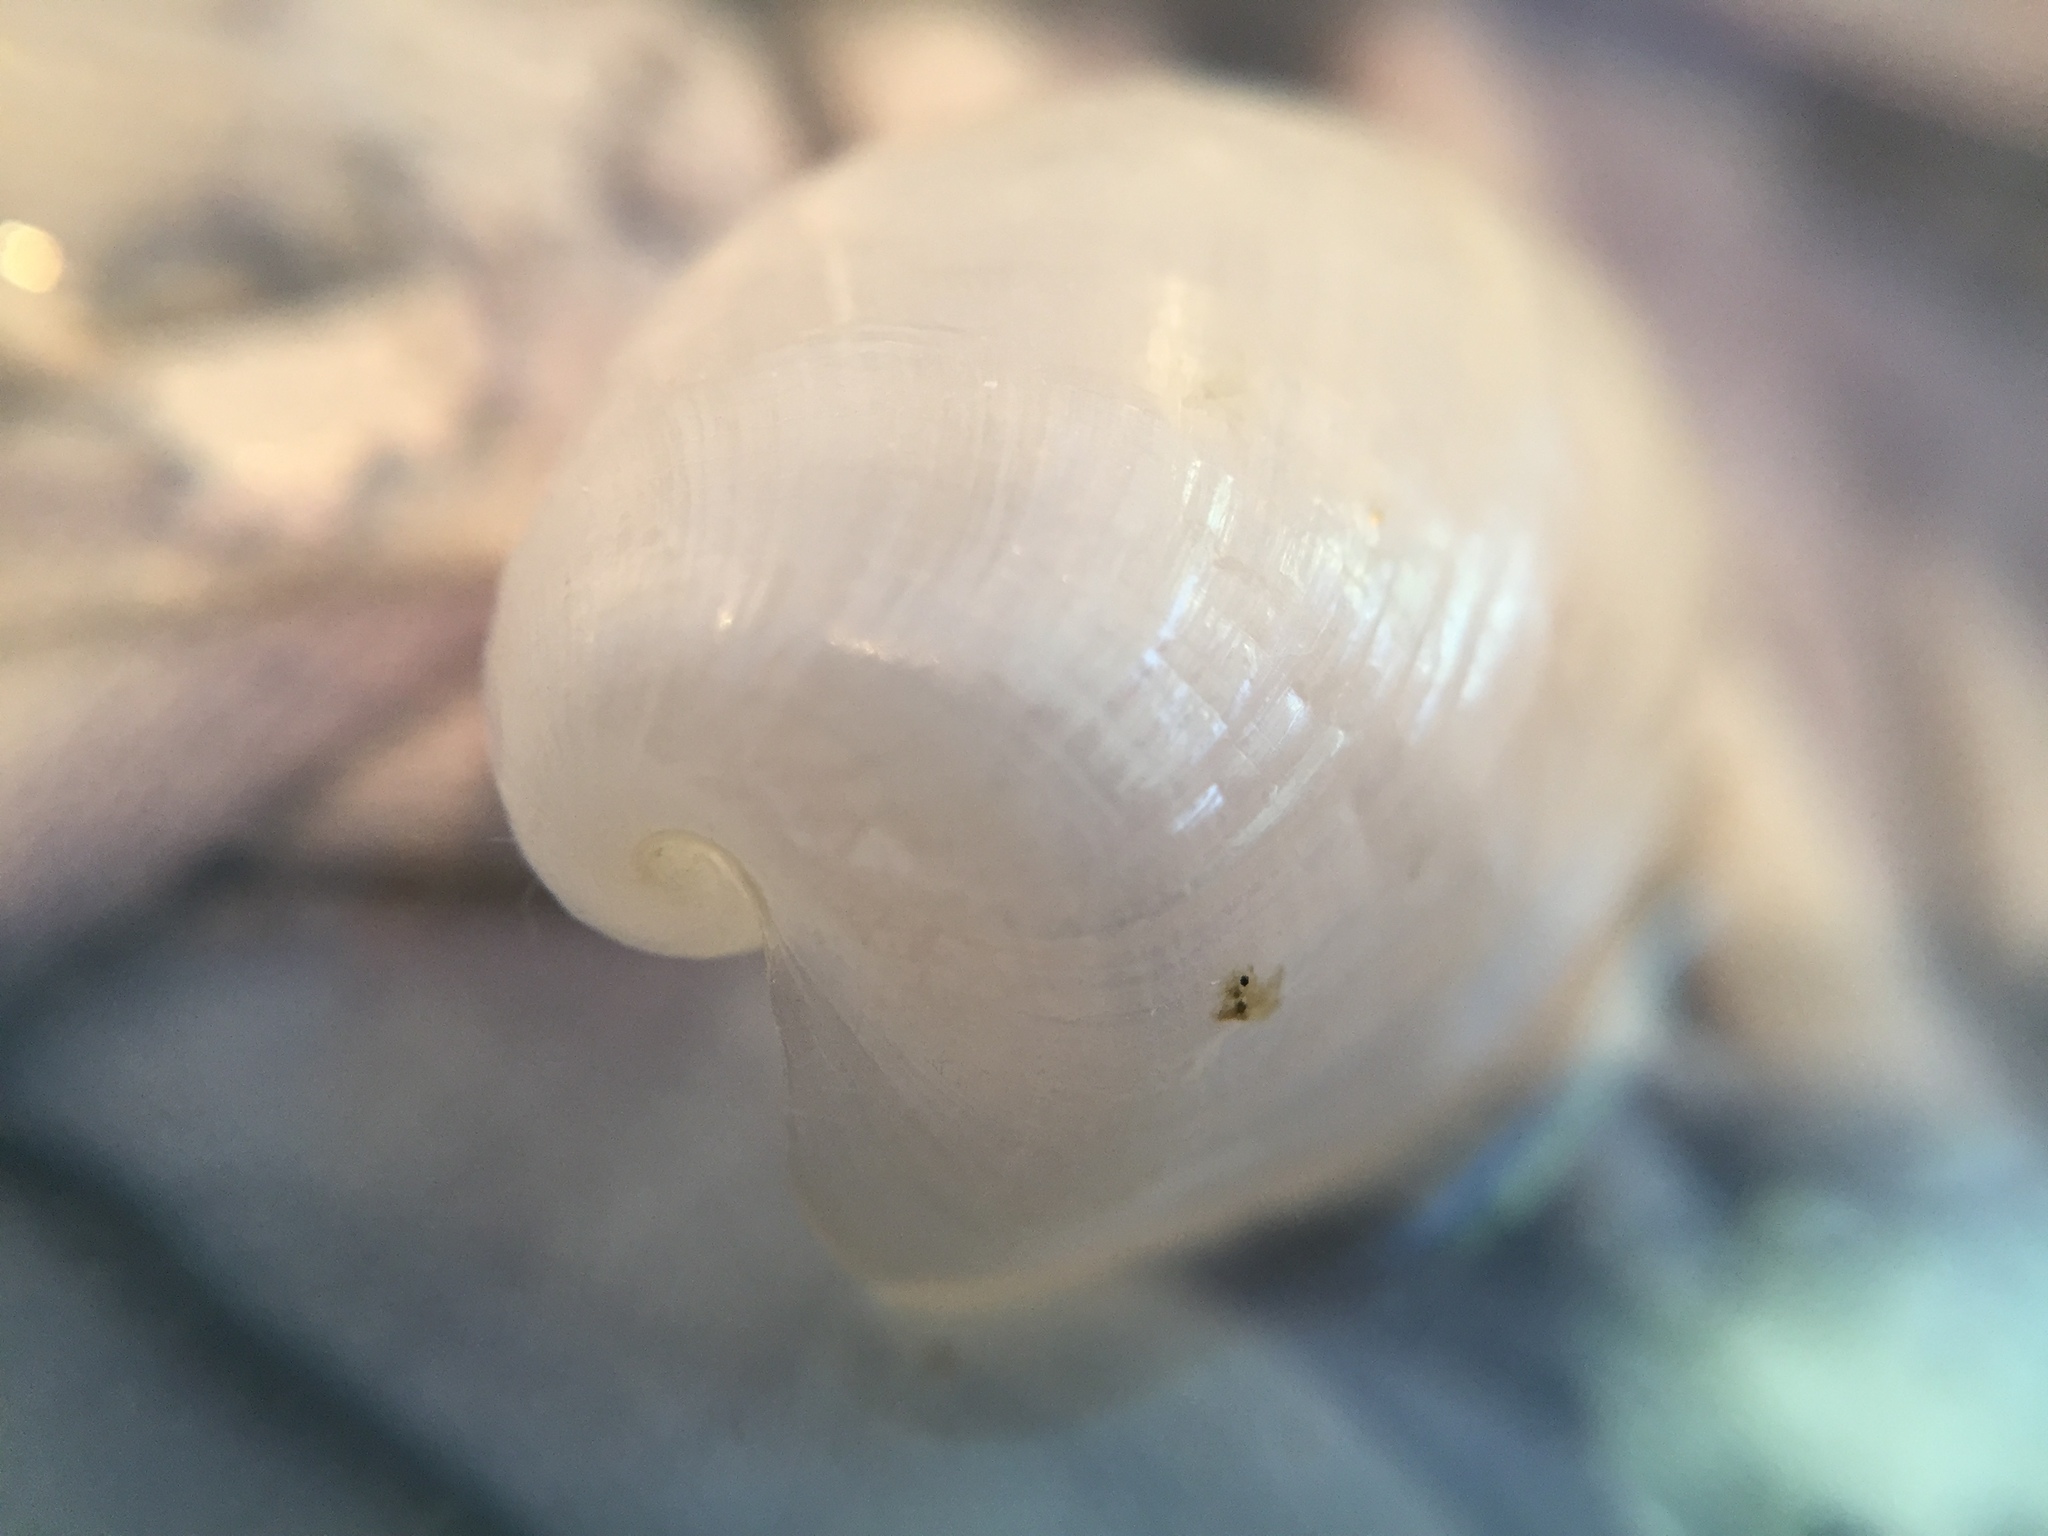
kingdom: Animalia
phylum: Mollusca
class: Gastropoda
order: Cephalaspidea
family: Philinidae
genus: Philine
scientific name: Philine angasi
